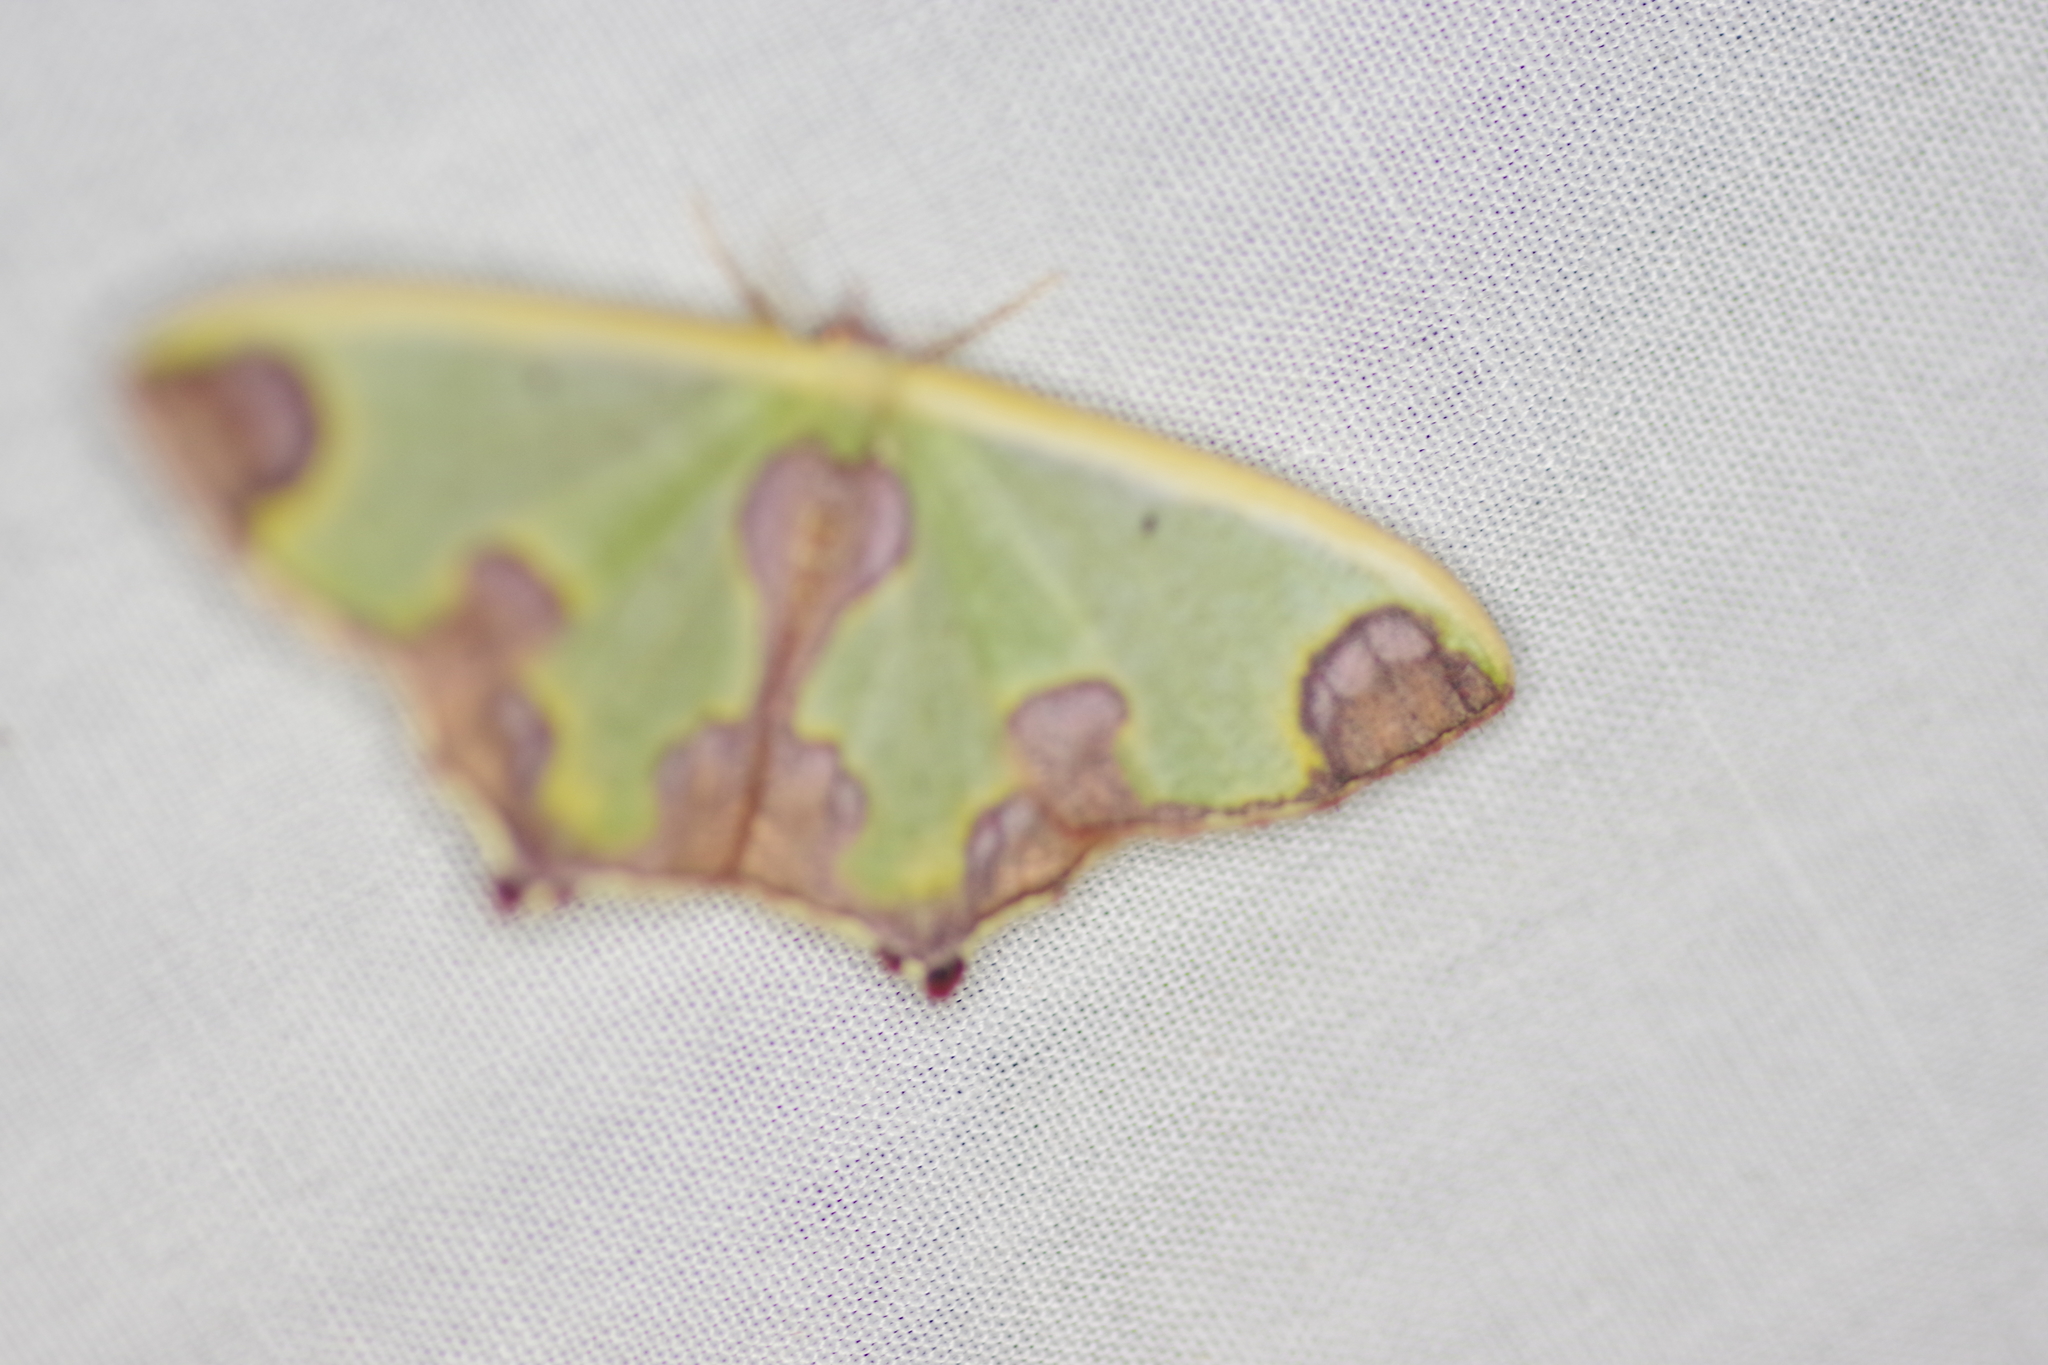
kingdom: Animalia
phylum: Arthropoda
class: Insecta
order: Lepidoptera
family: Geometridae
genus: Oospila
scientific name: Oospila asmura
